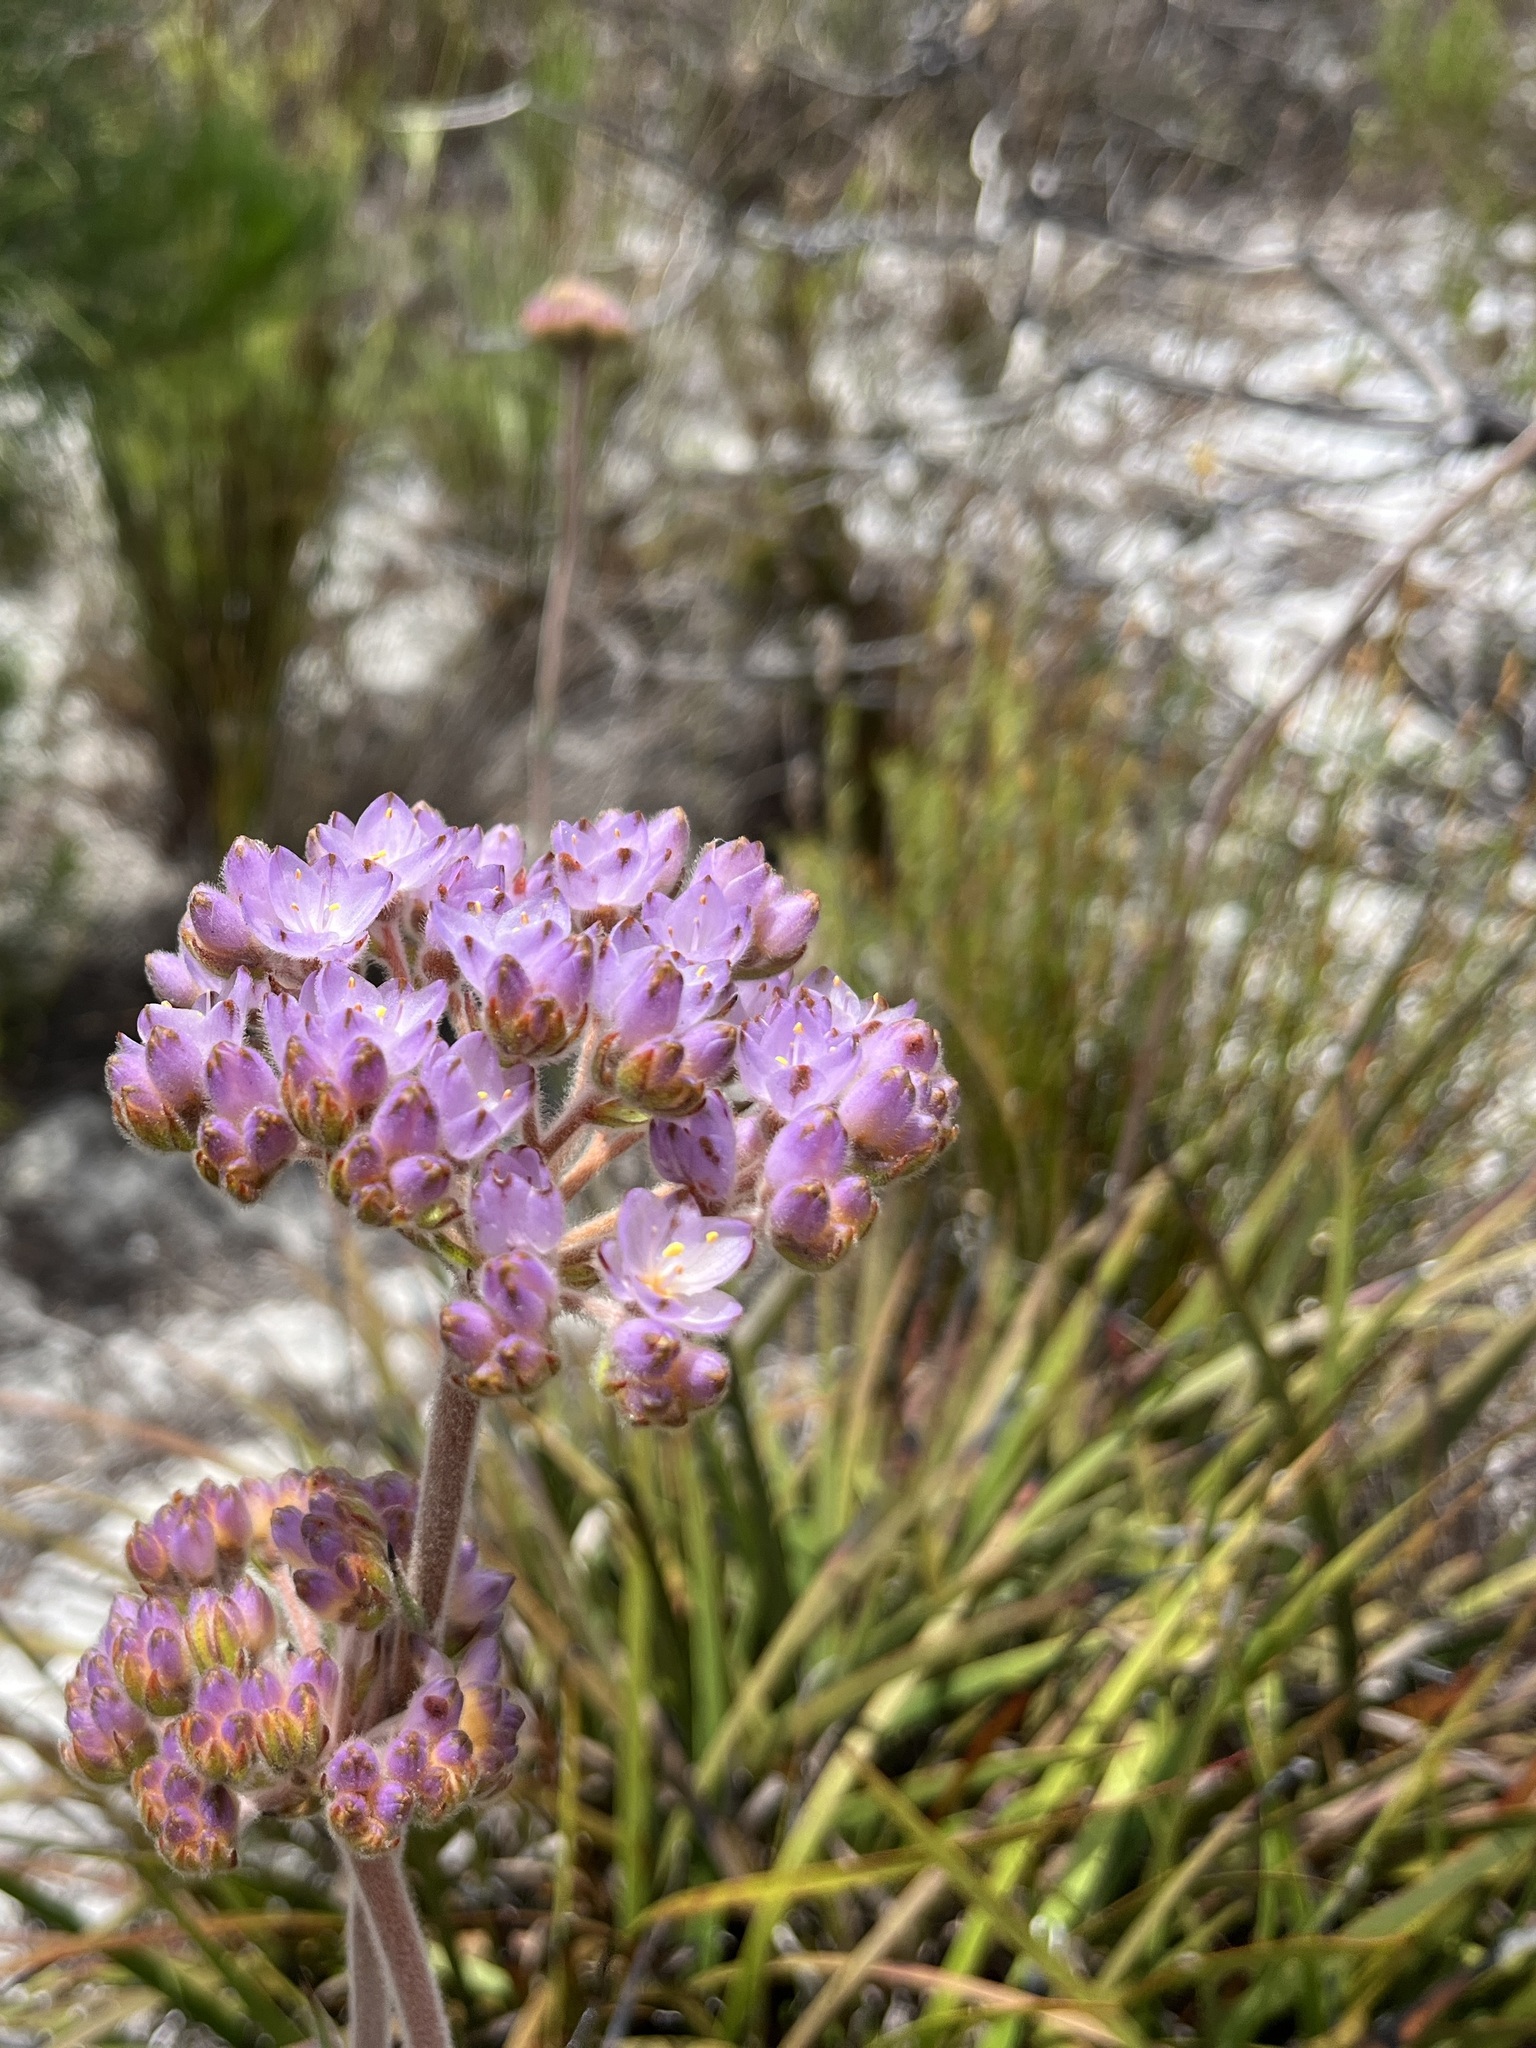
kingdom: Plantae
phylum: Tracheophyta
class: Liliopsida
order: Commelinales
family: Haemodoraceae
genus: Dilatris
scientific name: Dilatris pillansii
